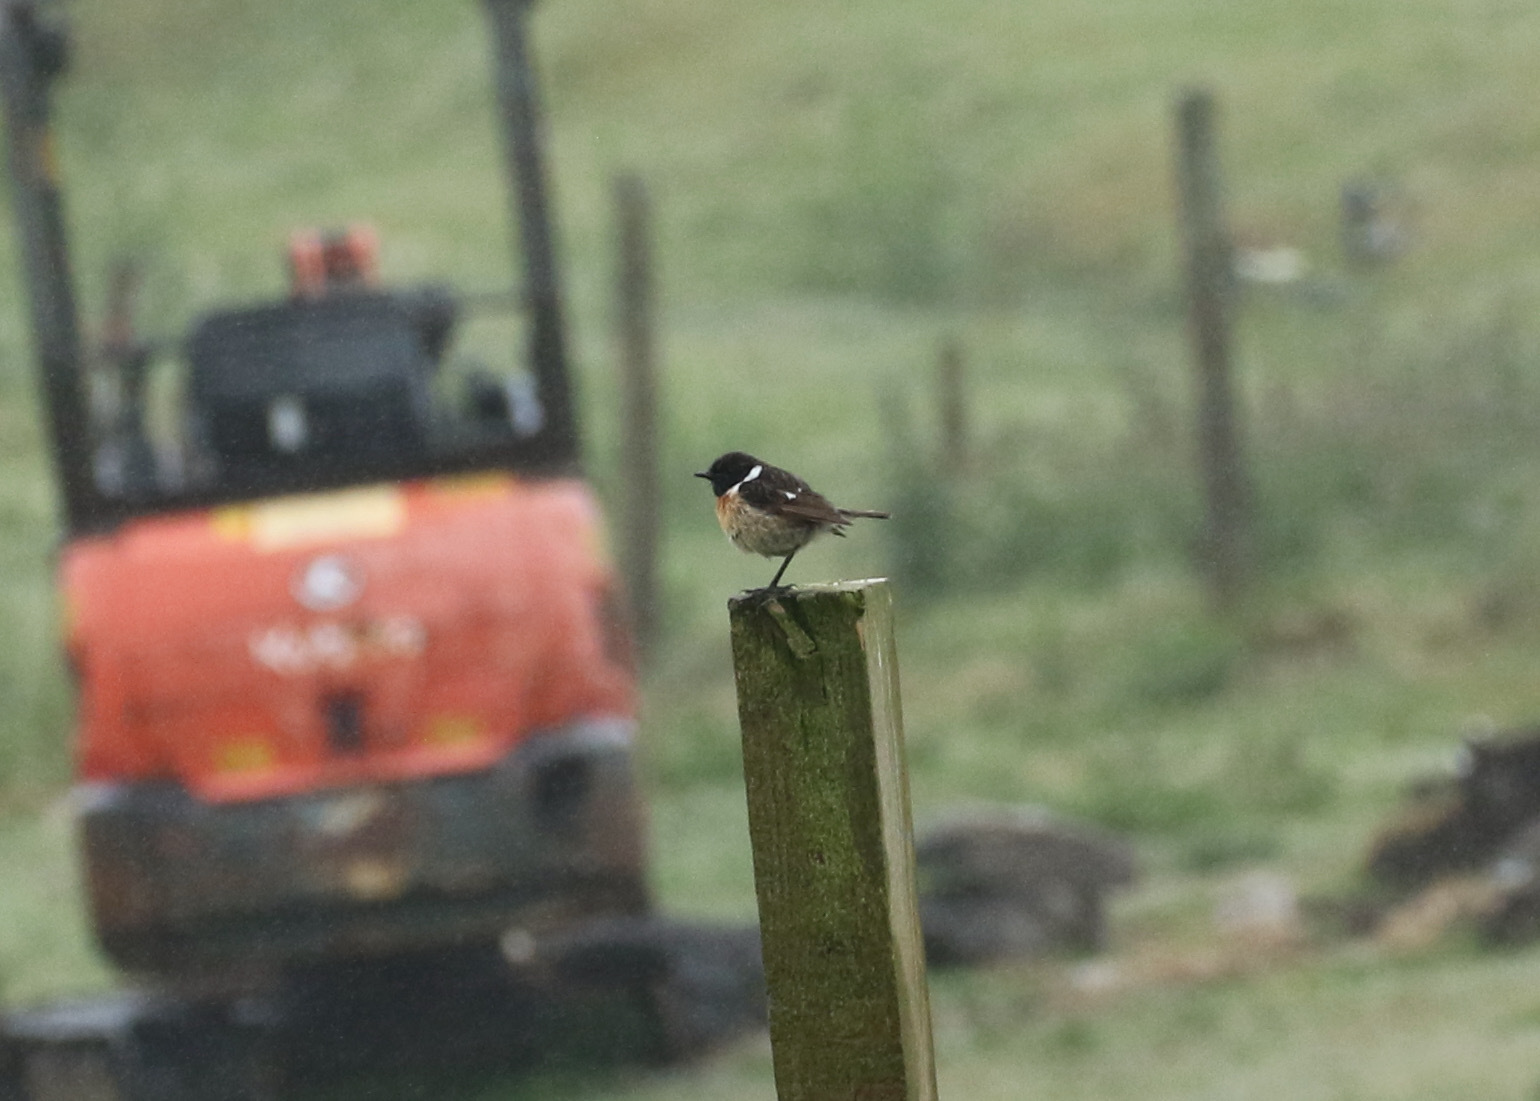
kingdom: Animalia
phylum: Chordata
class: Aves
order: Passeriformes
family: Muscicapidae
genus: Saxicola
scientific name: Saxicola rubicola
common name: European stonechat
